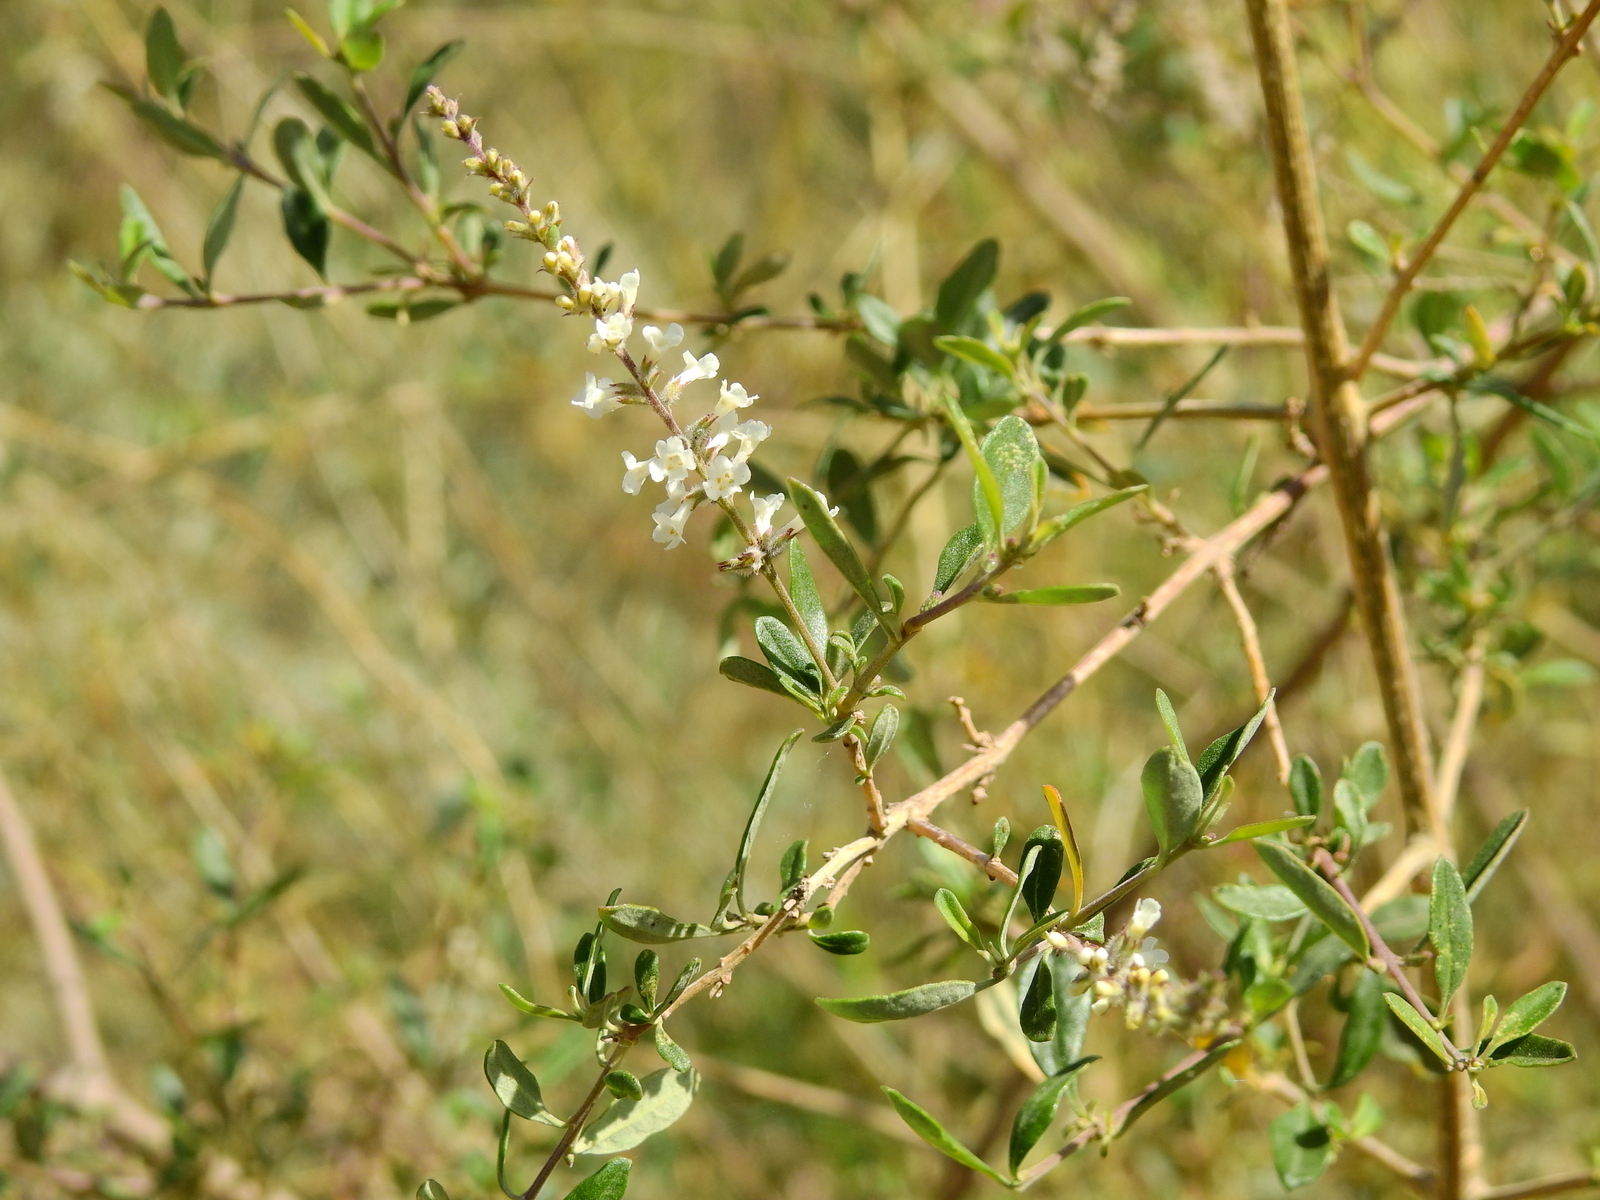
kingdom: Plantae
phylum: Tracheophyta
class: Magnoliopsida
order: Lamiales
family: Verbenaceae
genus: Aloysia
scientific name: Aloysia gratissima
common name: Common bee-brush
